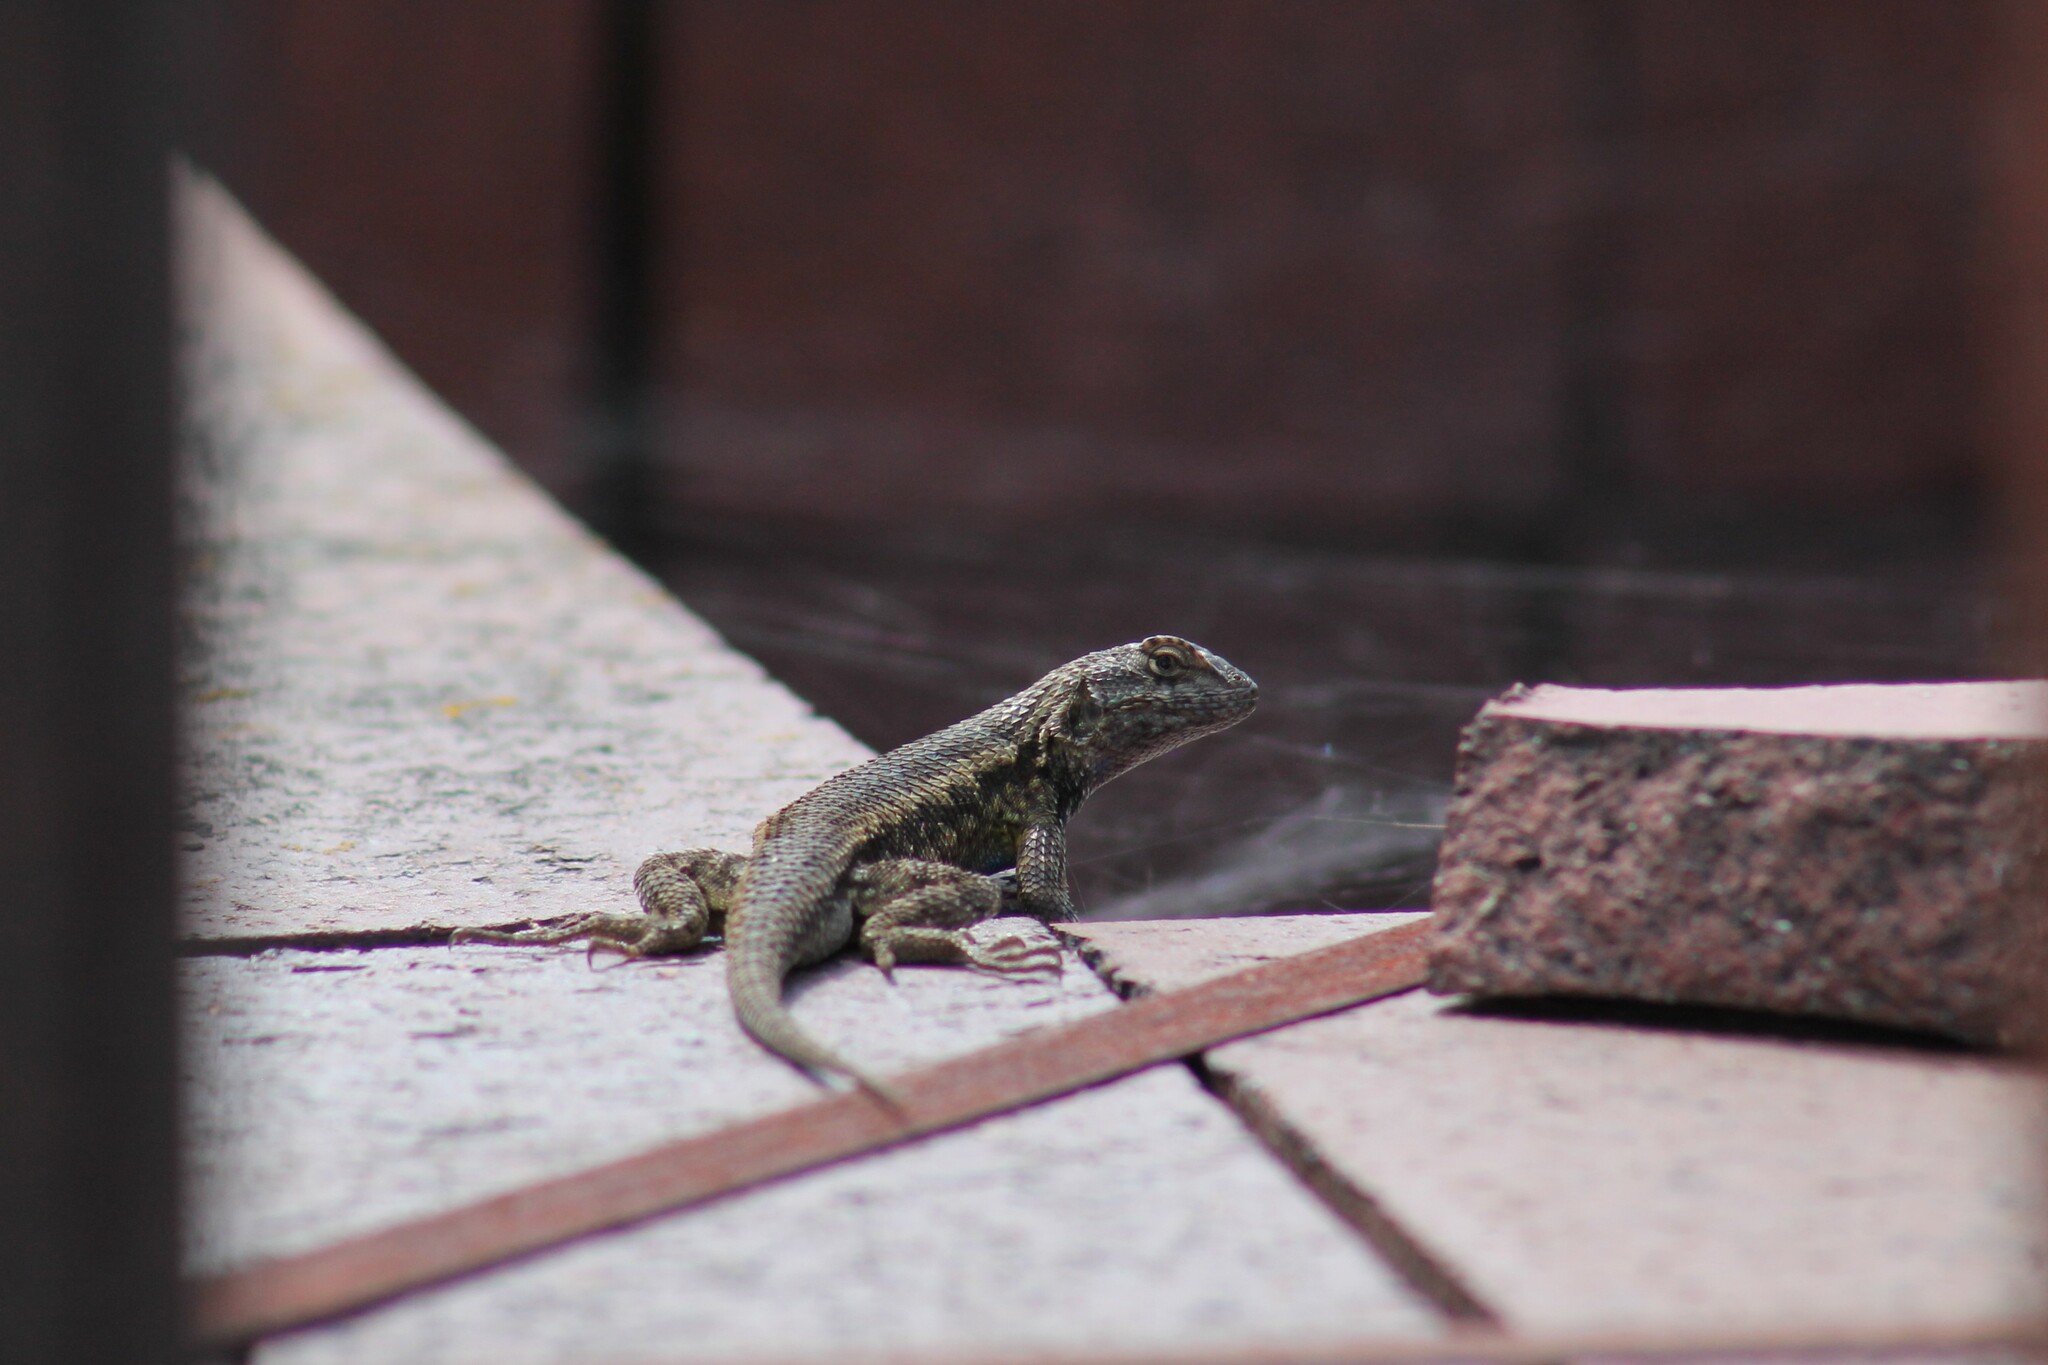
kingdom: Animalia
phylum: Chordata
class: Squamata
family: Phrynosomatidae
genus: Sceloporus
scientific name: Sceloporus occidentalis
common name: Western fence lizard
